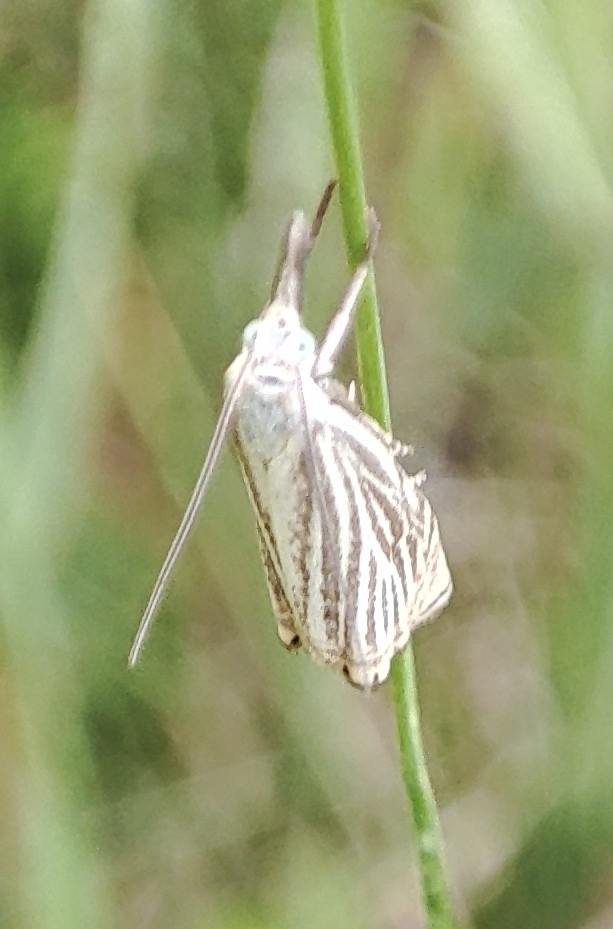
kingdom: Animalia
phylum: Arthropoda
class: Insecta
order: Lepidoptera
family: Crambidae
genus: Chrysoteuchia
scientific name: Chrysoteuchia culmella
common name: Garden grass-veneer
